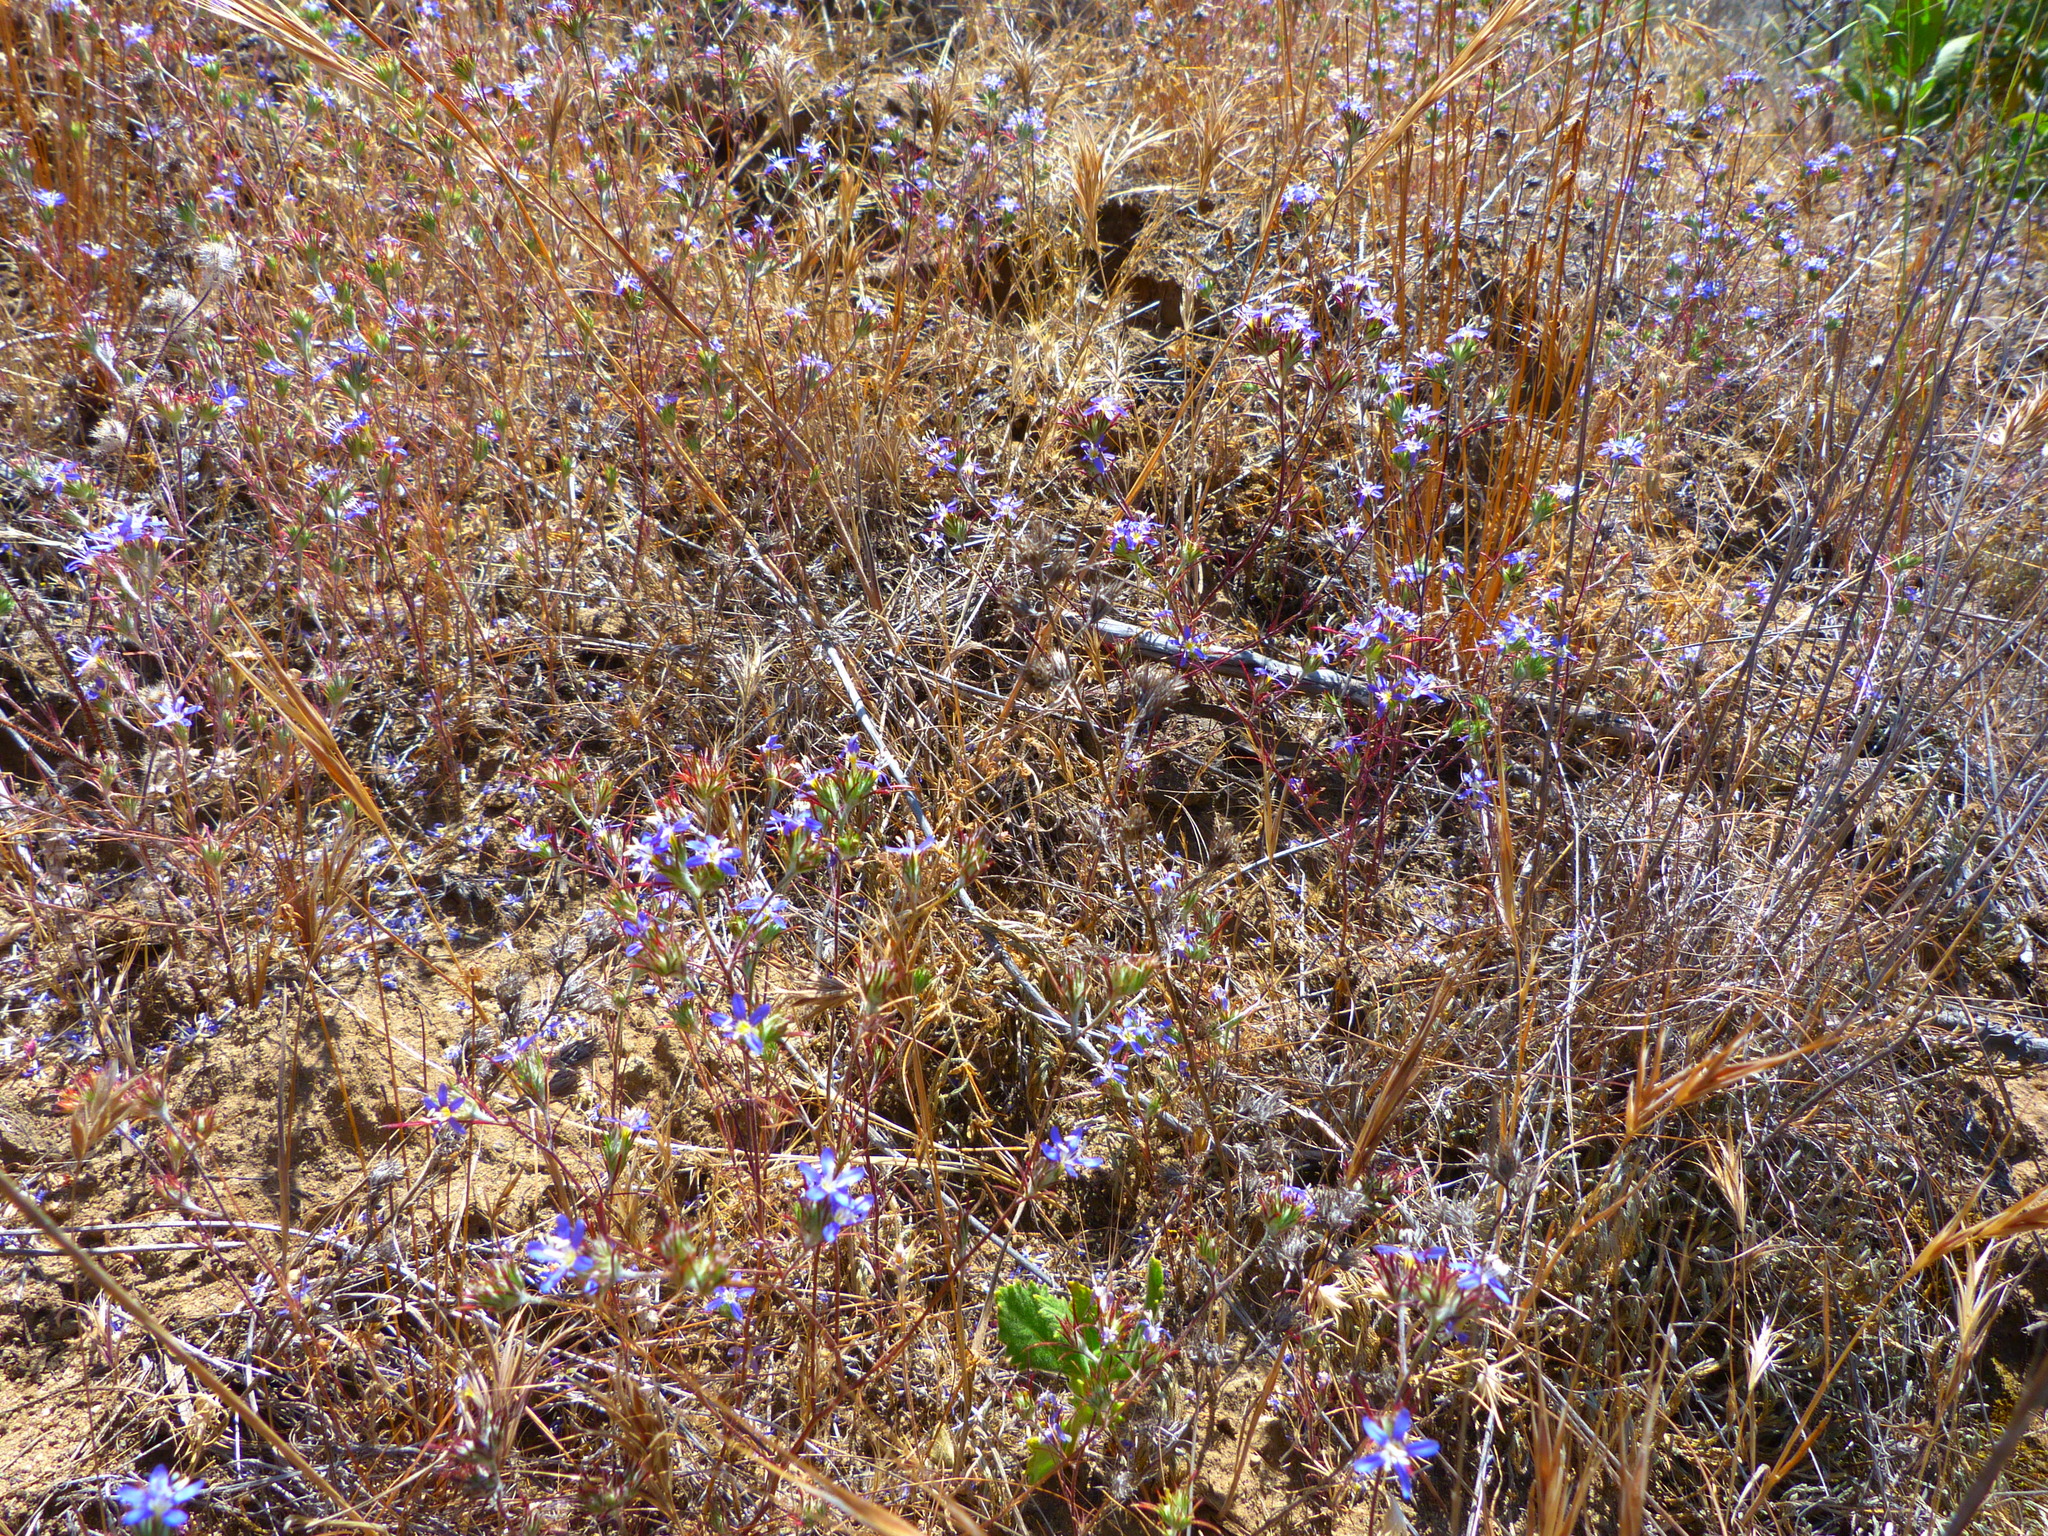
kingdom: Plantae
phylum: Tracheophyta
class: Magnoliopsida
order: Ericales
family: Polemoniaceae
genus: Eriastrum
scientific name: Eriastrum sapphirinum
